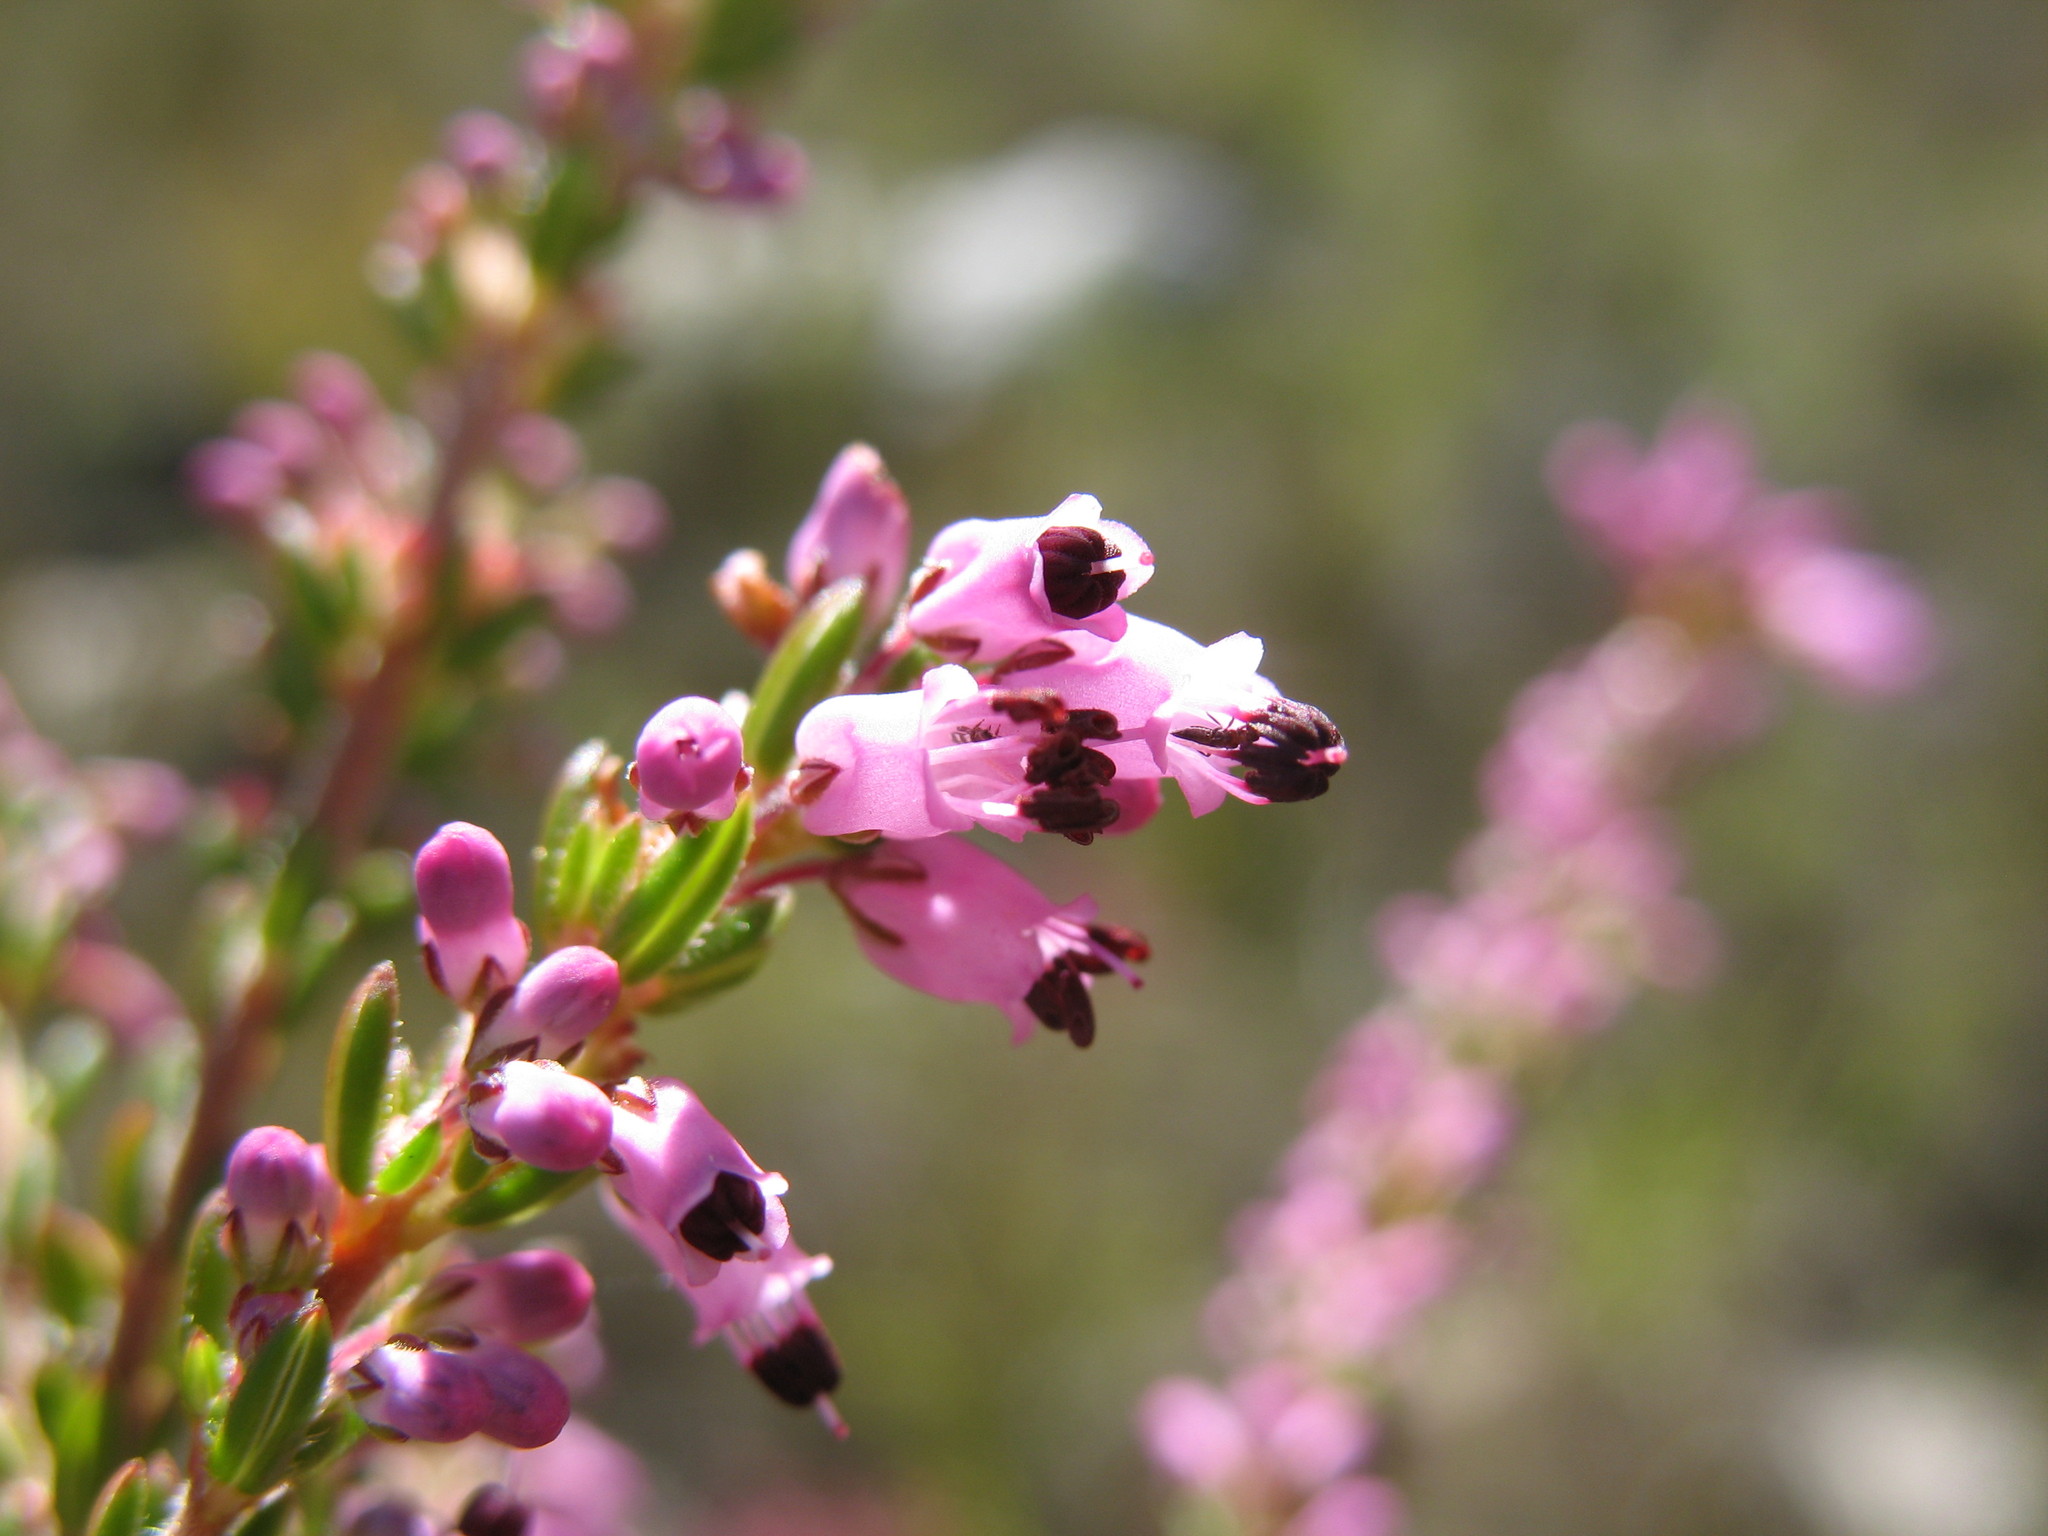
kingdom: Plantae
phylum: Tracheophyta
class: Magnoliopsida
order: Ericales
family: Ericaceae
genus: Erica
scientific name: Erica nudiflora
